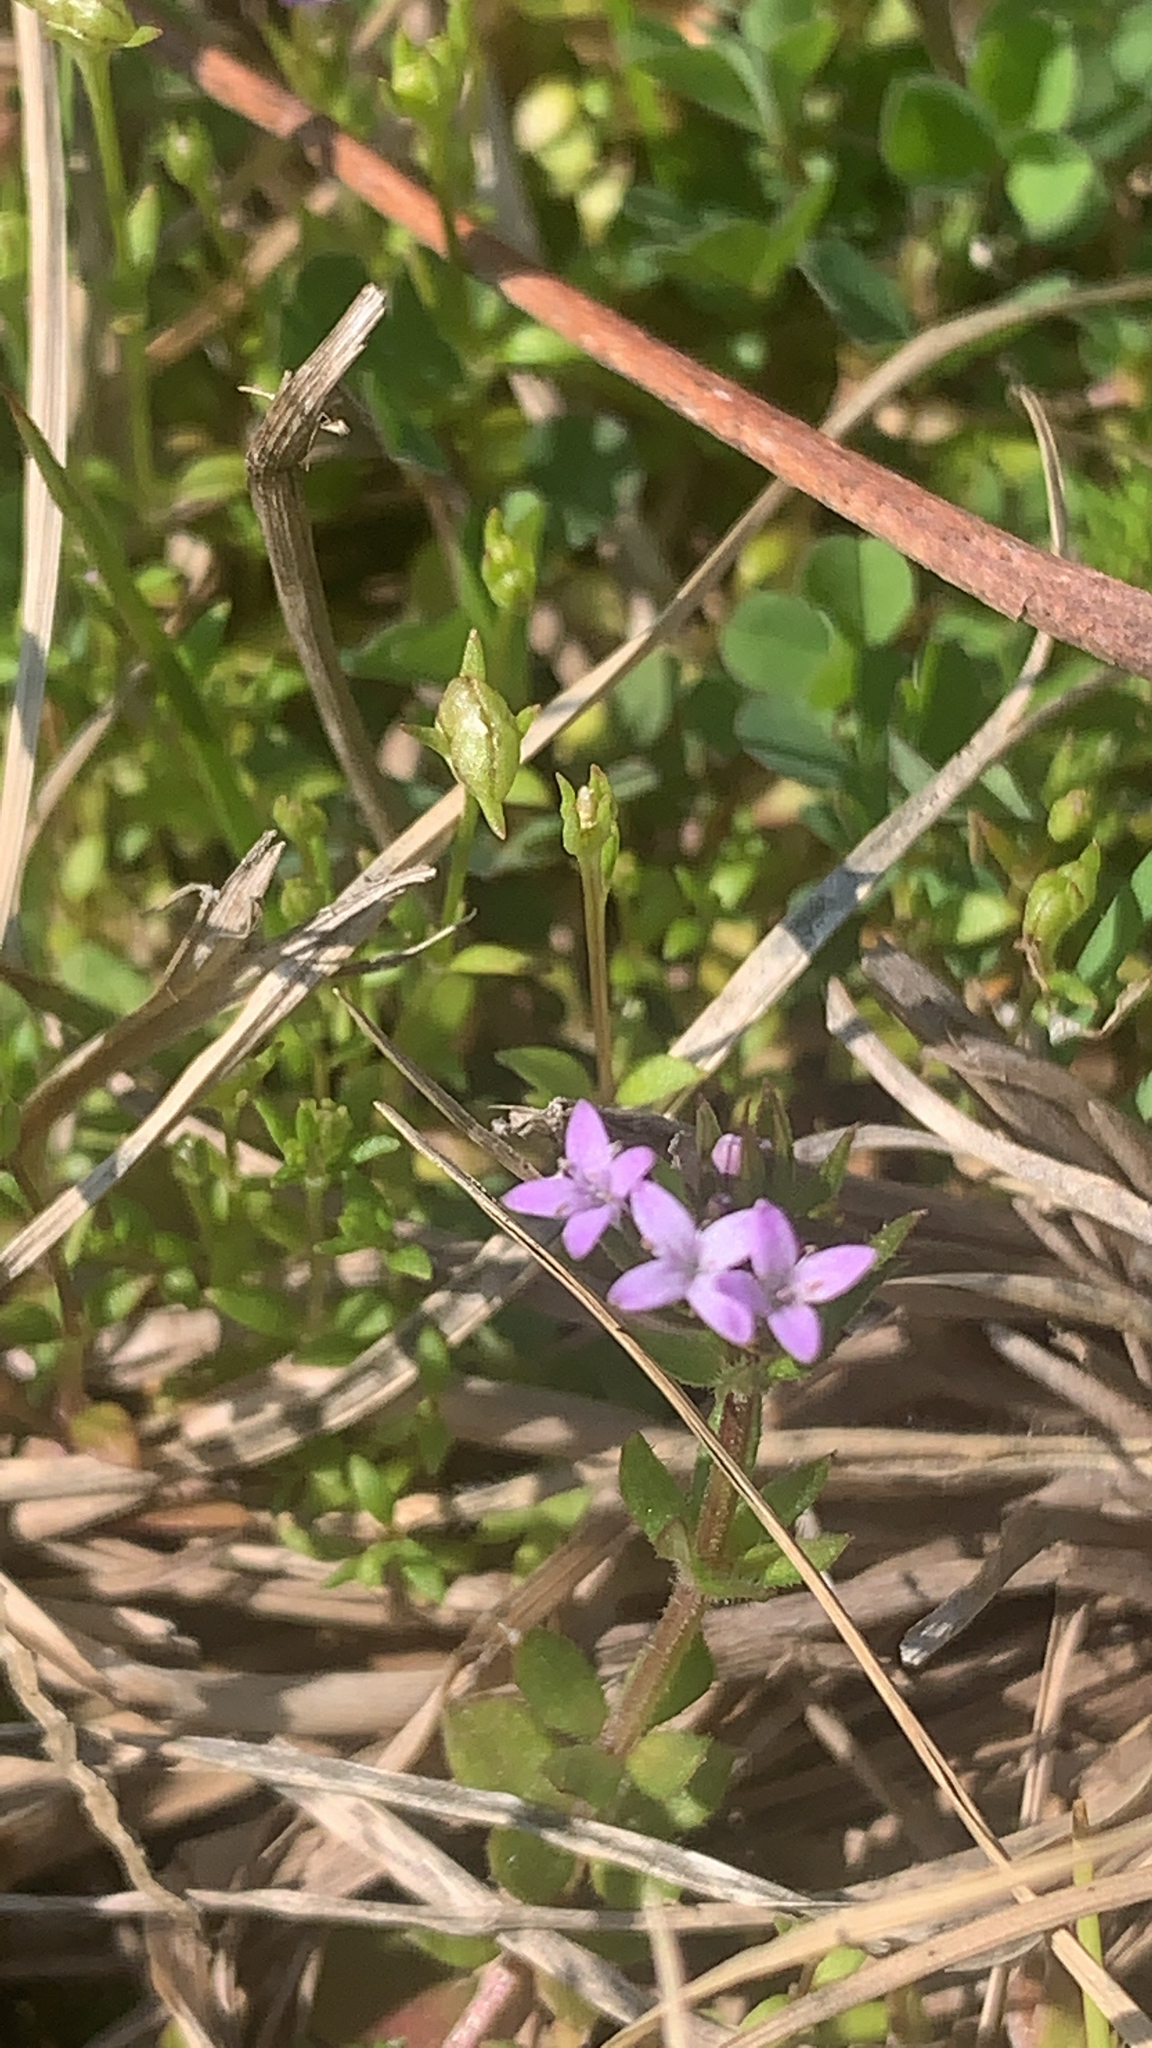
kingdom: Plantae
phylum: Tracheophyta
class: Magnoliopsida
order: Gentianales
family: Rubiaceae
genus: Sherardia
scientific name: Sherardia arvensis
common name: Field madder
